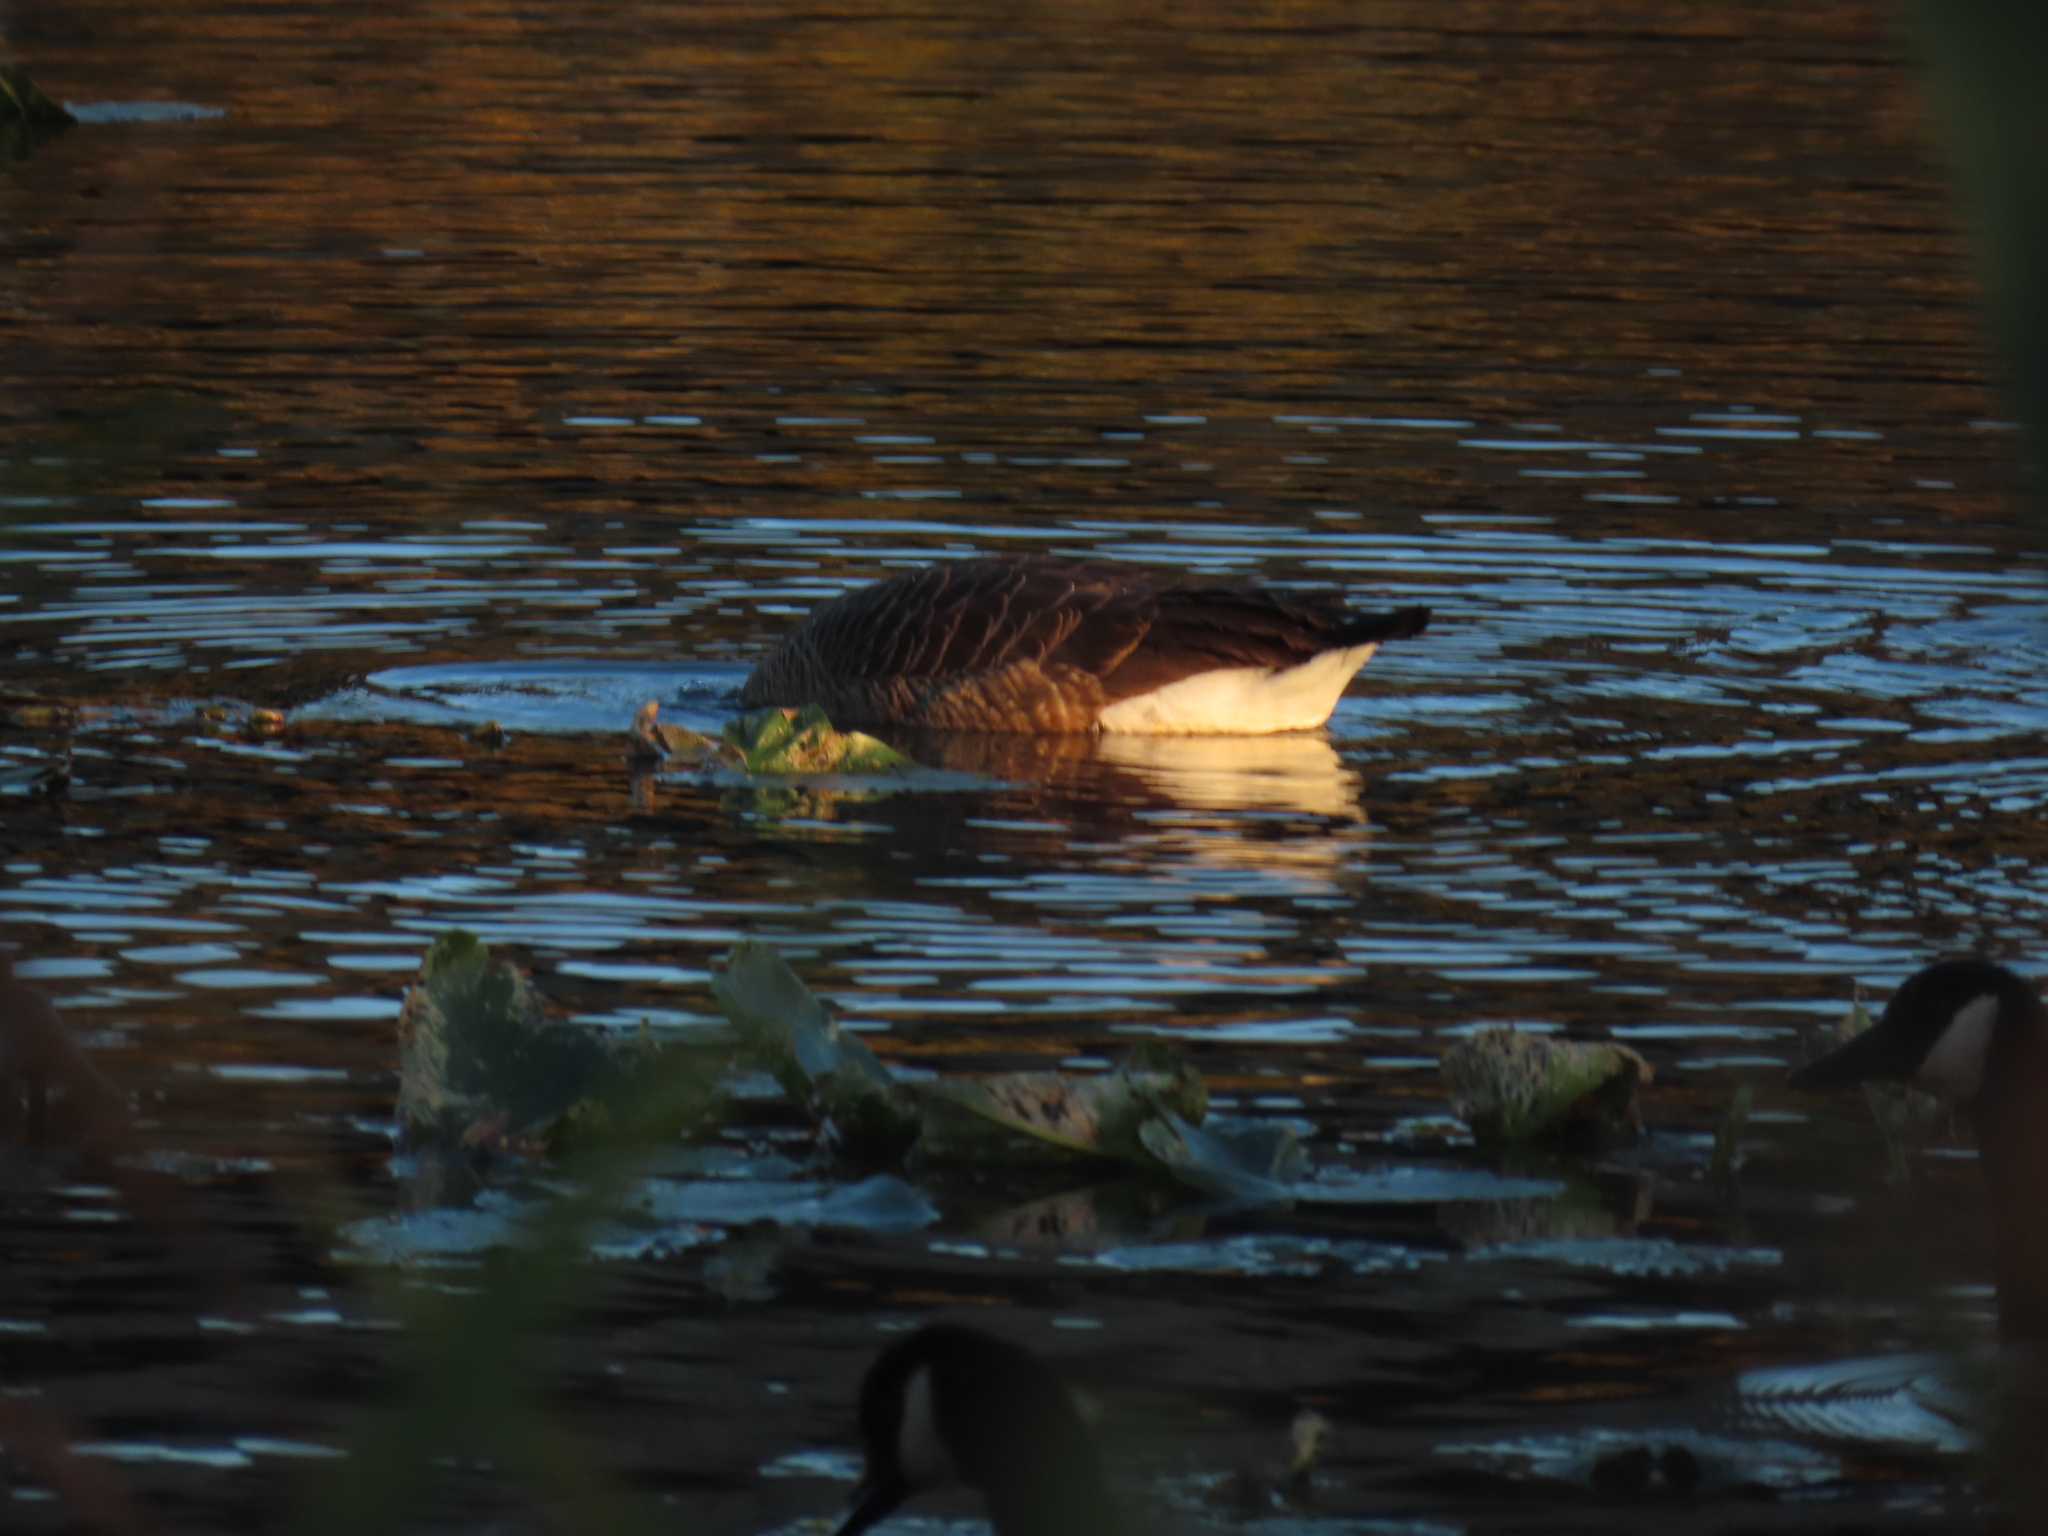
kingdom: Animalia
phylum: Chordata
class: Aves
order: Anseriformes
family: Anatidae
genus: Branta
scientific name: Branta canadensis
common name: Canada goose
